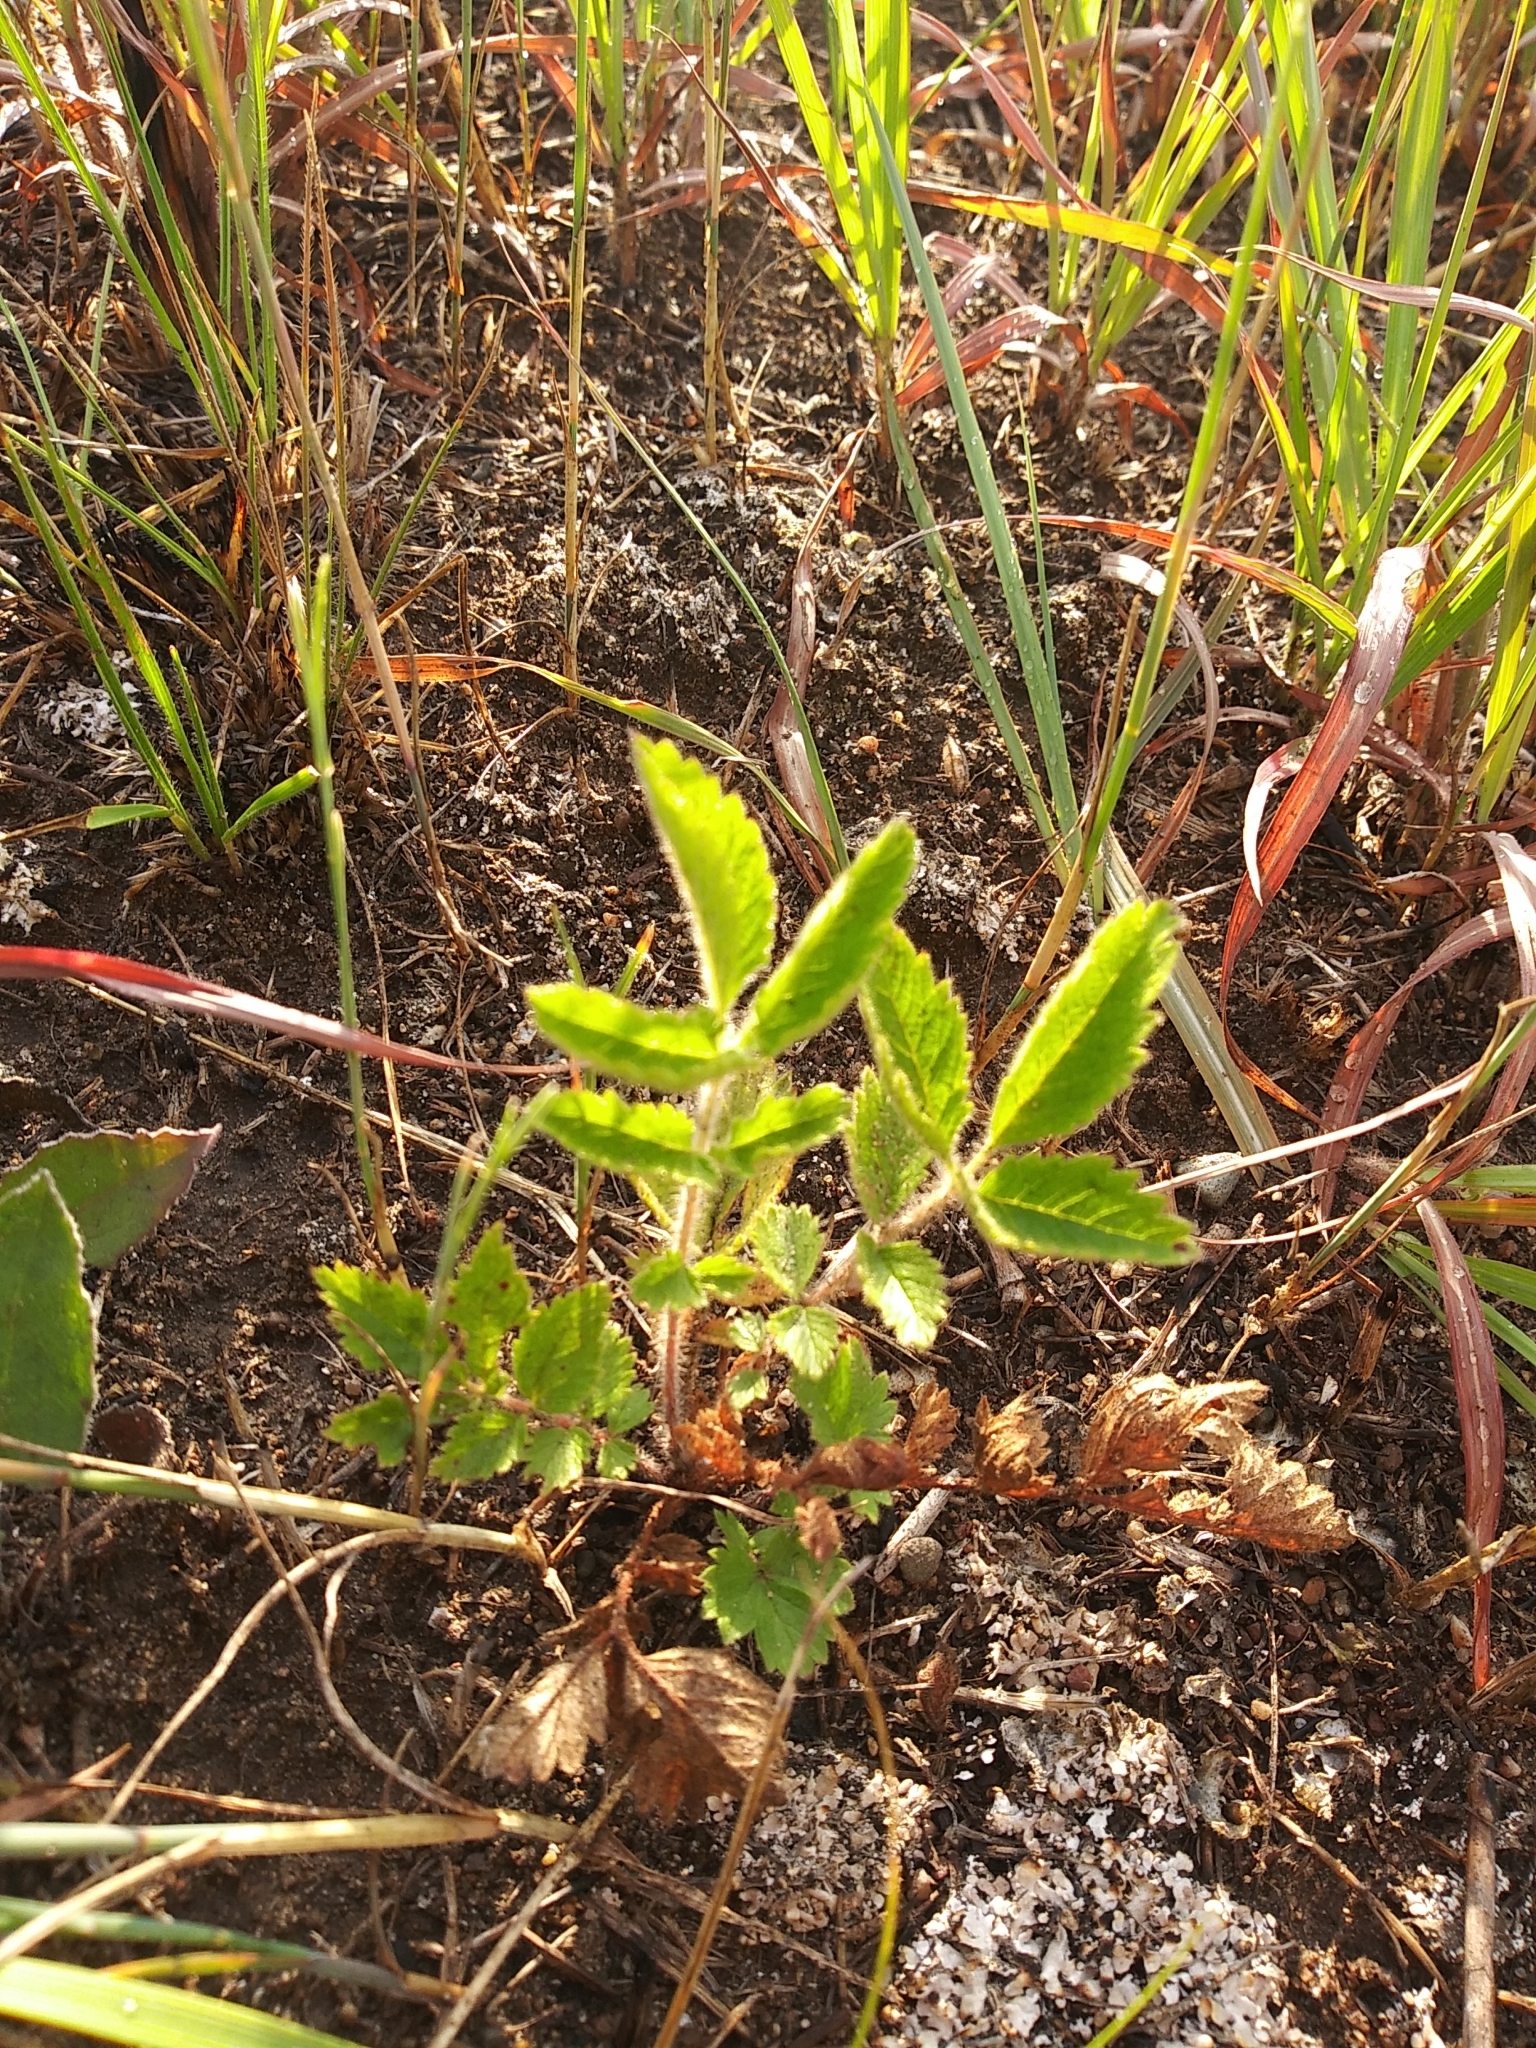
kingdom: Plantae
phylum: Tracheophyta
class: Magnoliopsida
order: Rosales
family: Rosaceae
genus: Drymocallis
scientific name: Drymocallis arguta
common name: Tall cinquefoil
